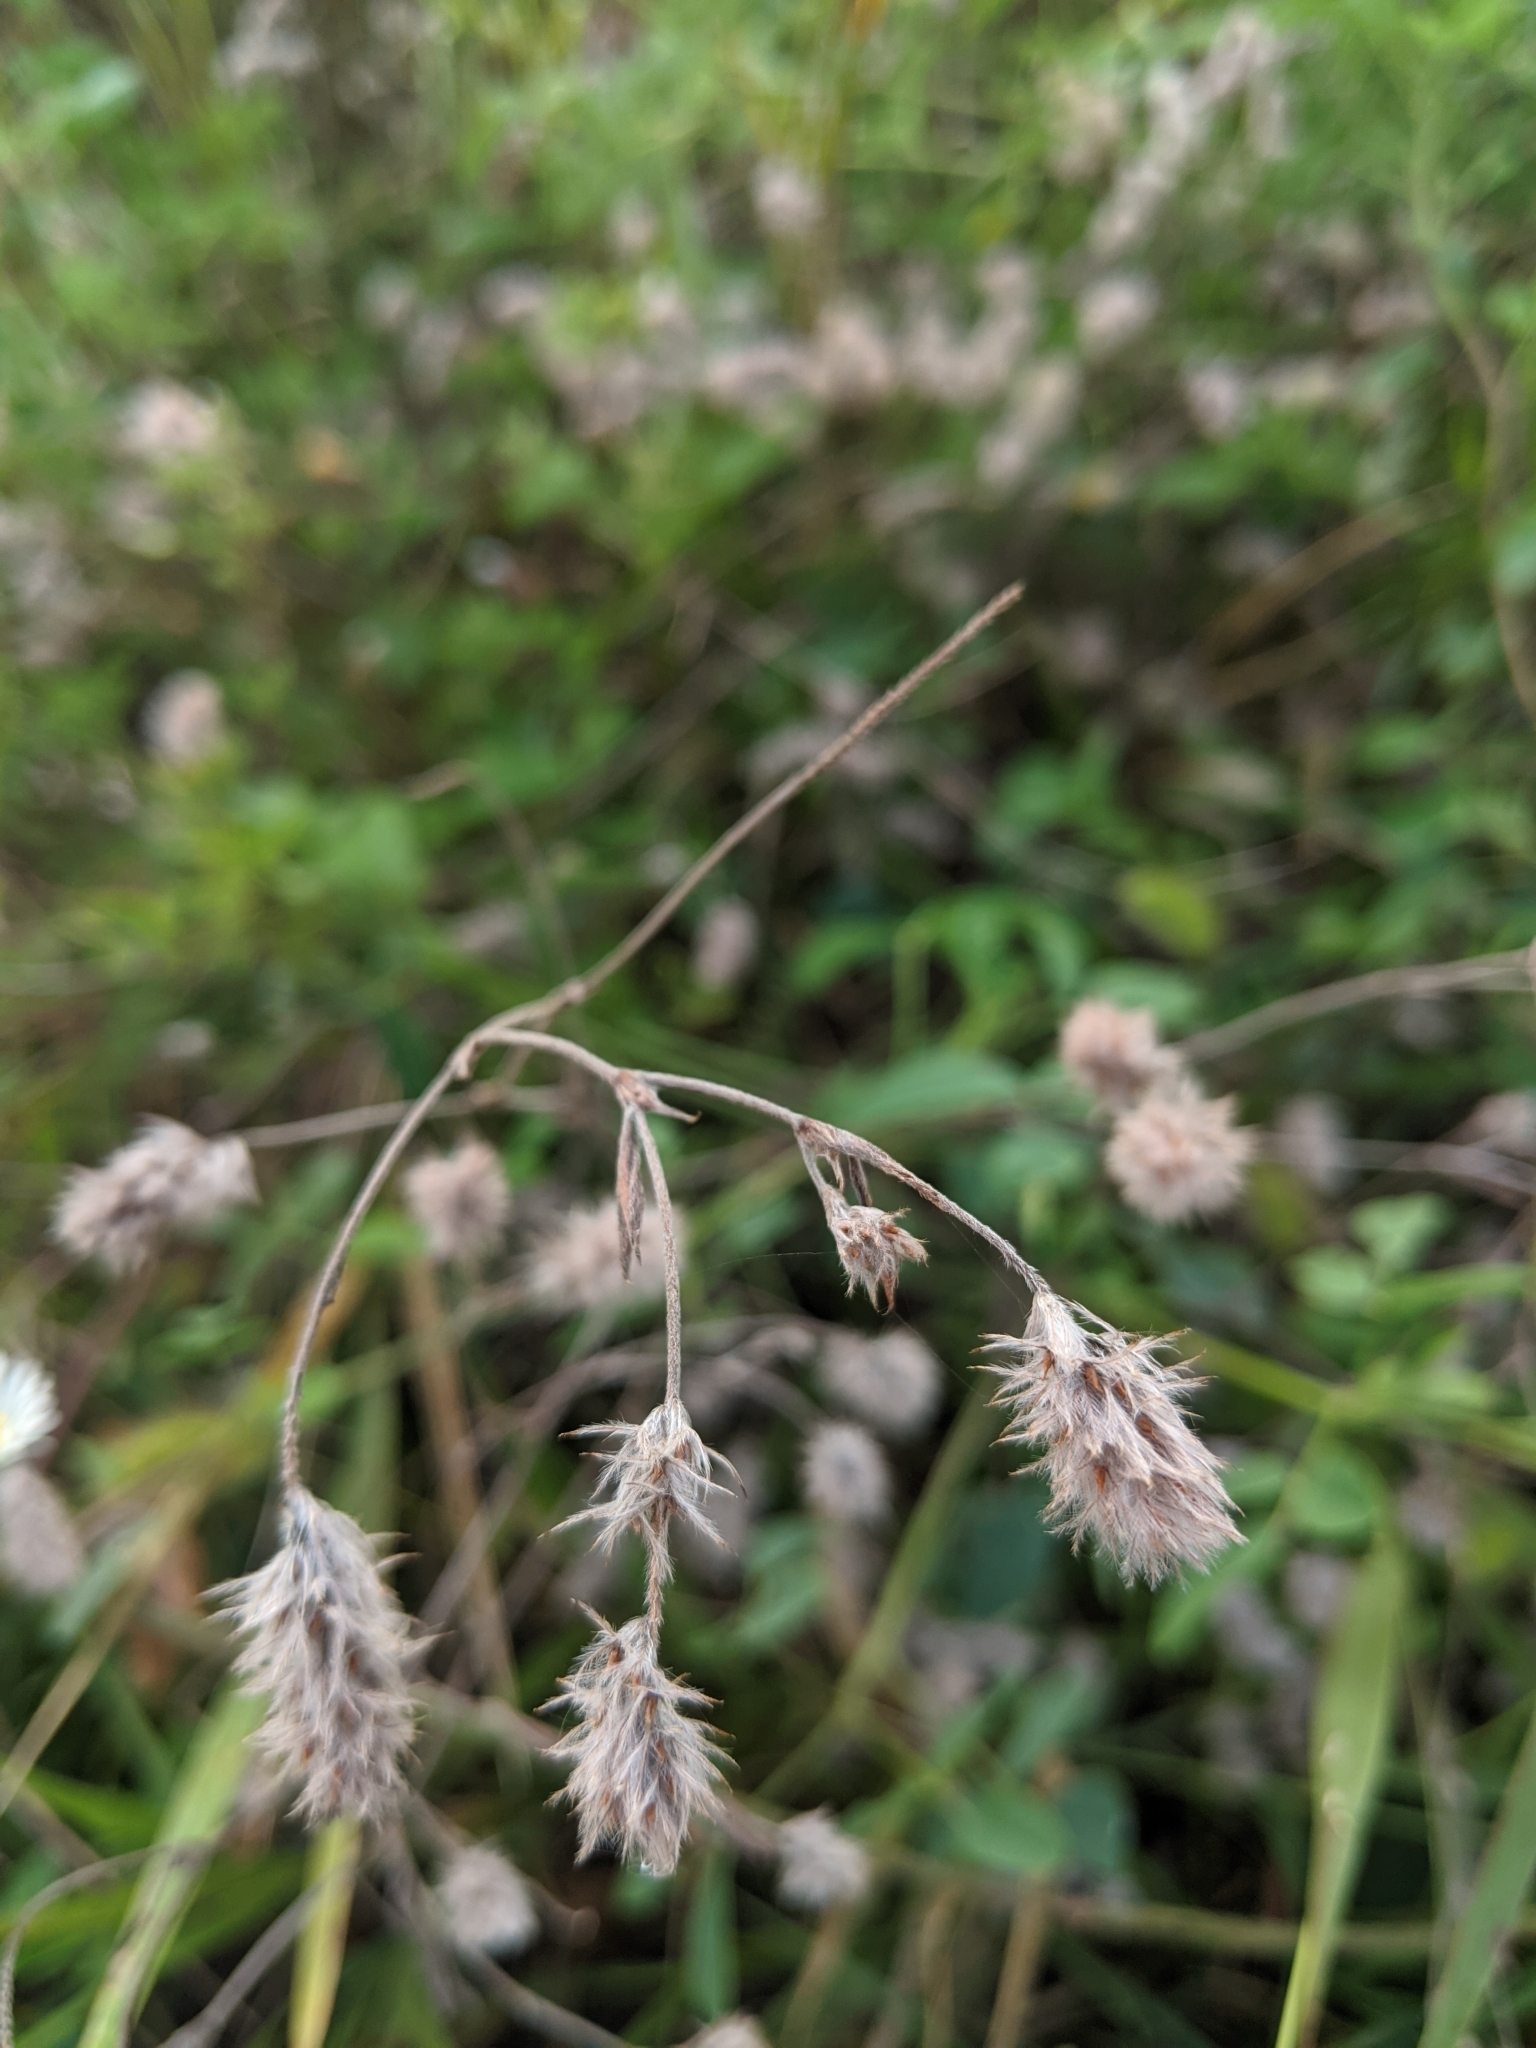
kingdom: Plantae
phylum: Tracheophyta
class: Magnoliopsida
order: Fabales
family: Fabaceae
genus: Trifolium
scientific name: Trifolium arvense
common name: Hare's-foot clover
